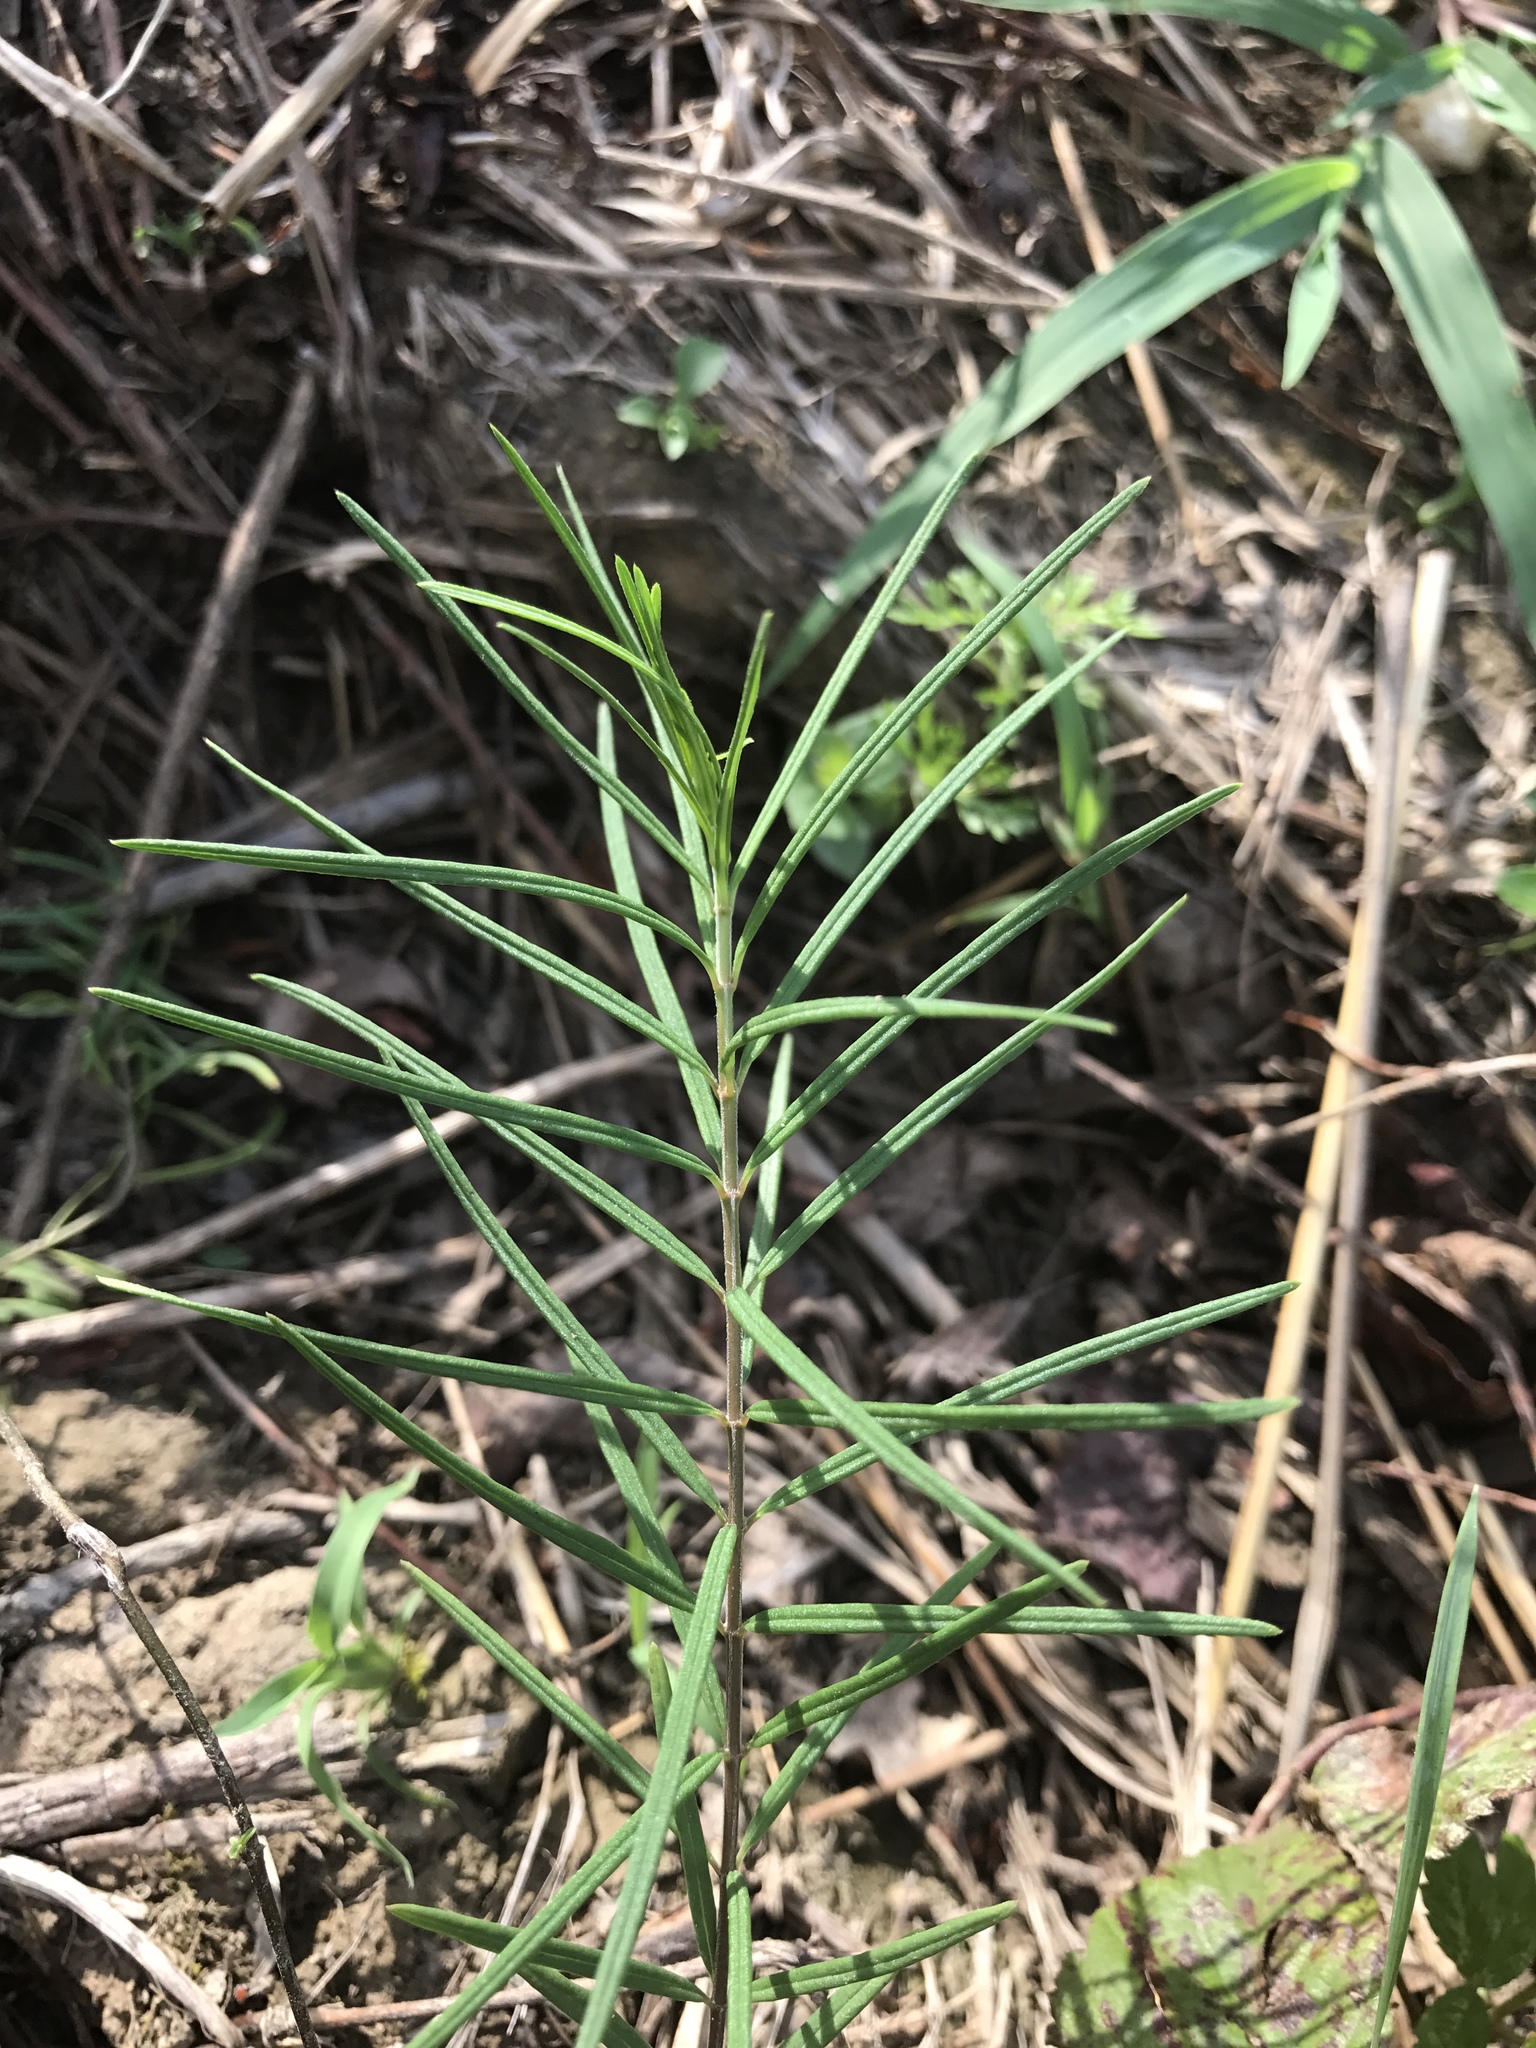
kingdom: Plantae
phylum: Tracheophyta
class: Magnoliopsida
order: Gentianales
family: Apocynaceae
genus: Asclepias
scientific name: Asclepias verticillata
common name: Eastern whorled milkweed
